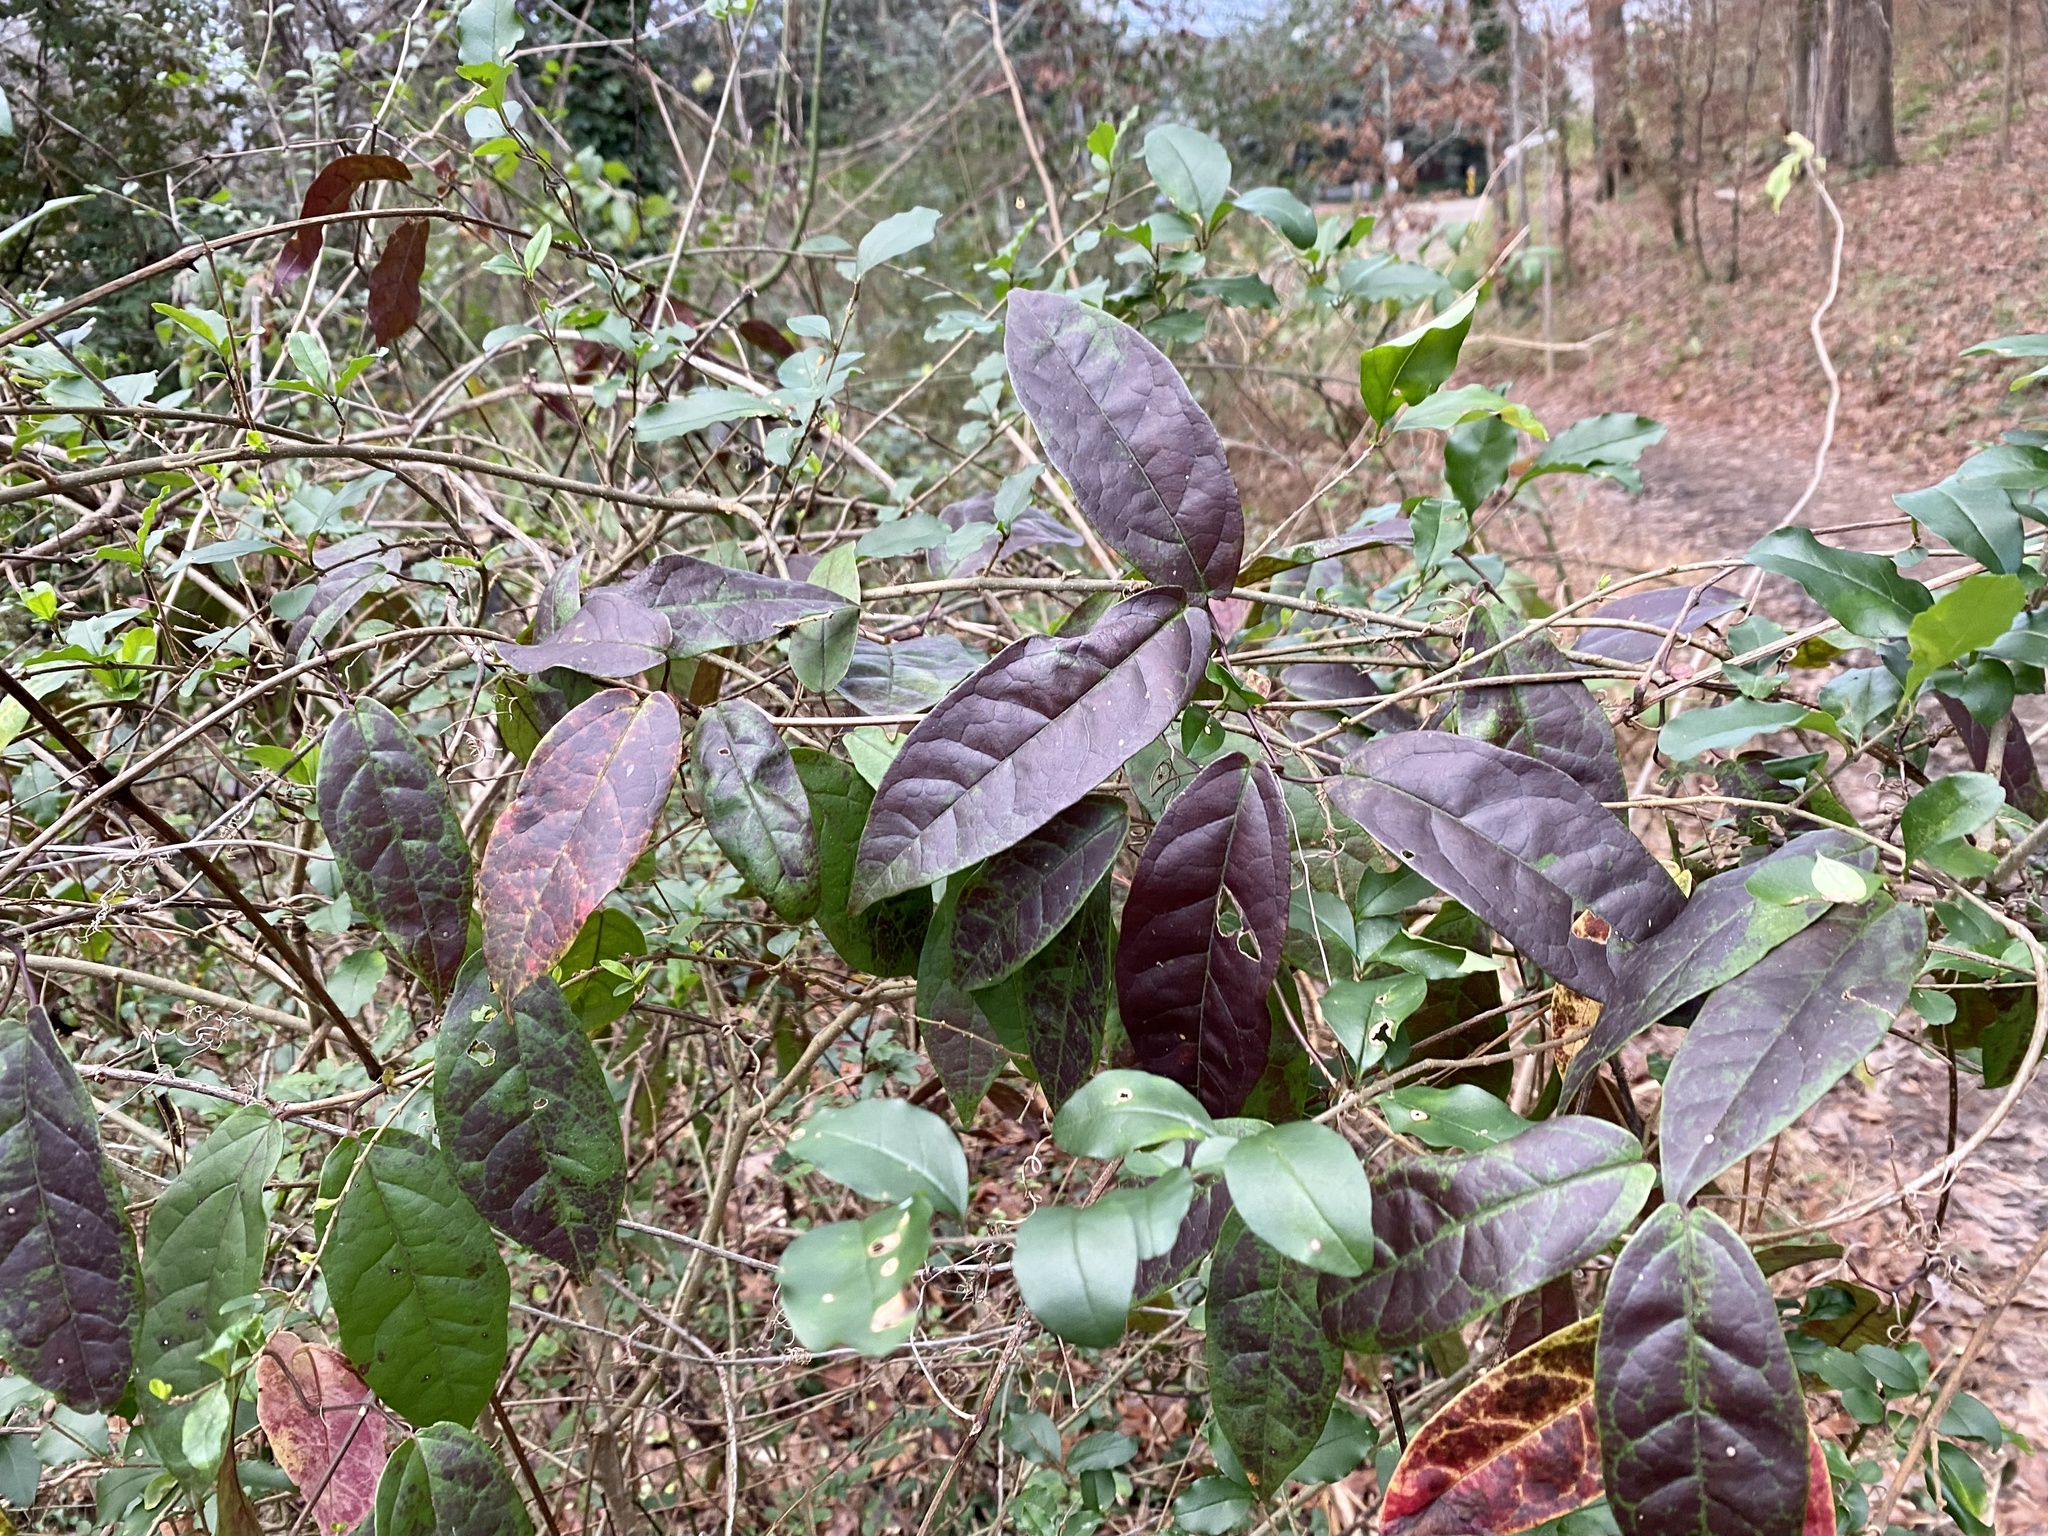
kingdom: Plantae
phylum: Tracheophyta
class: Magnoliopsida
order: Lamiales
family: Bignoniaceae
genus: Bignonia
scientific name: Bignonia capreolata
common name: Crossvine
